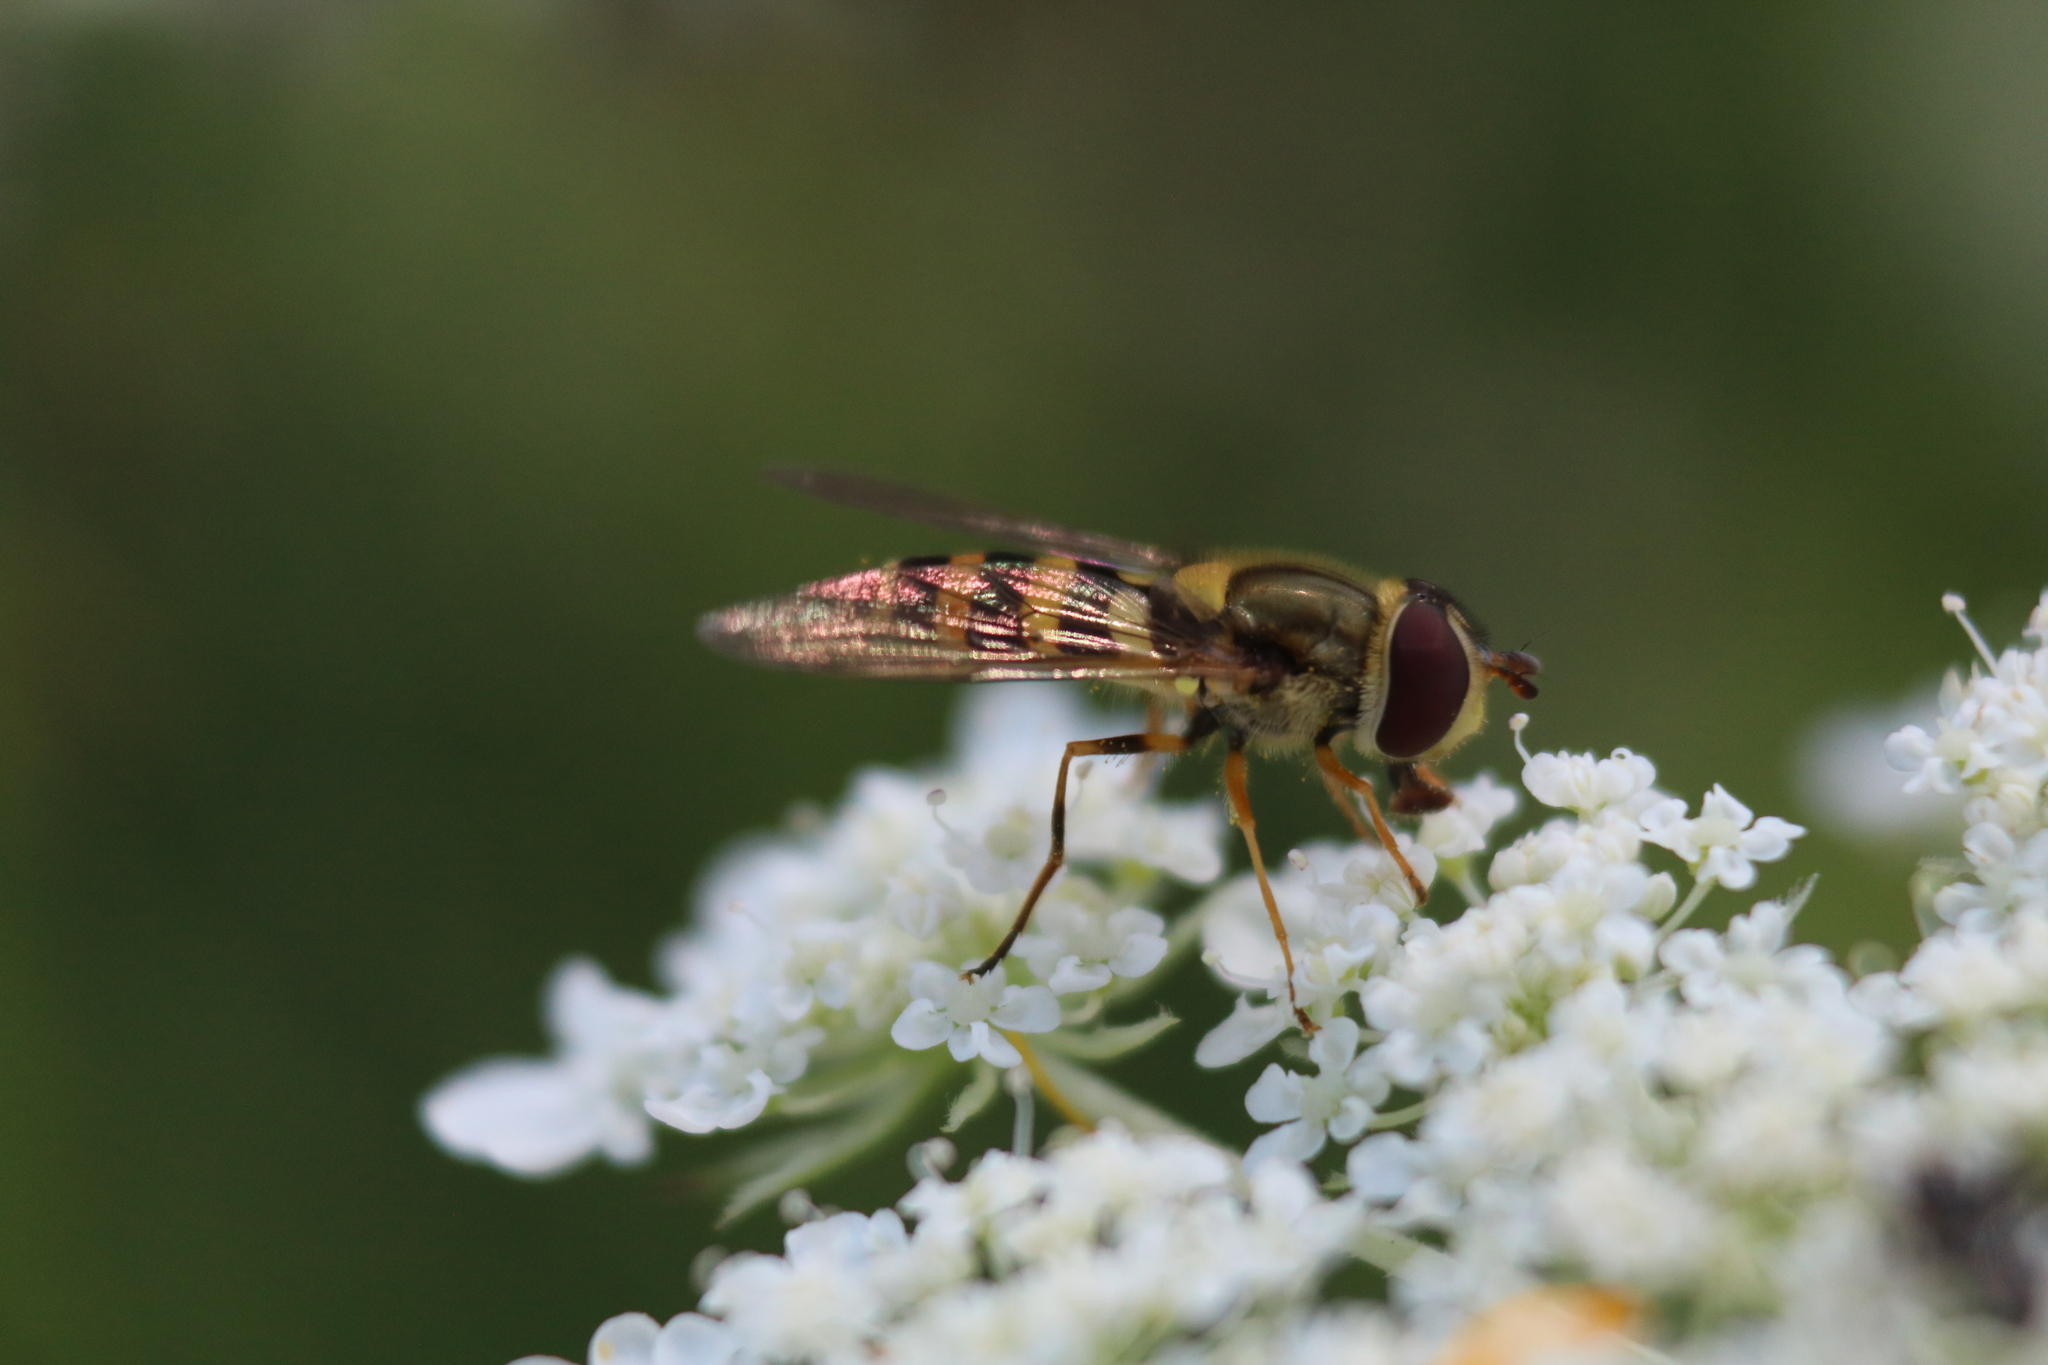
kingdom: Animalia
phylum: Arthropoda
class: Insecta
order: Diptera
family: Syrphidae
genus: Syrphus
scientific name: Syrphus rectus
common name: Yellow-legged flower fly
